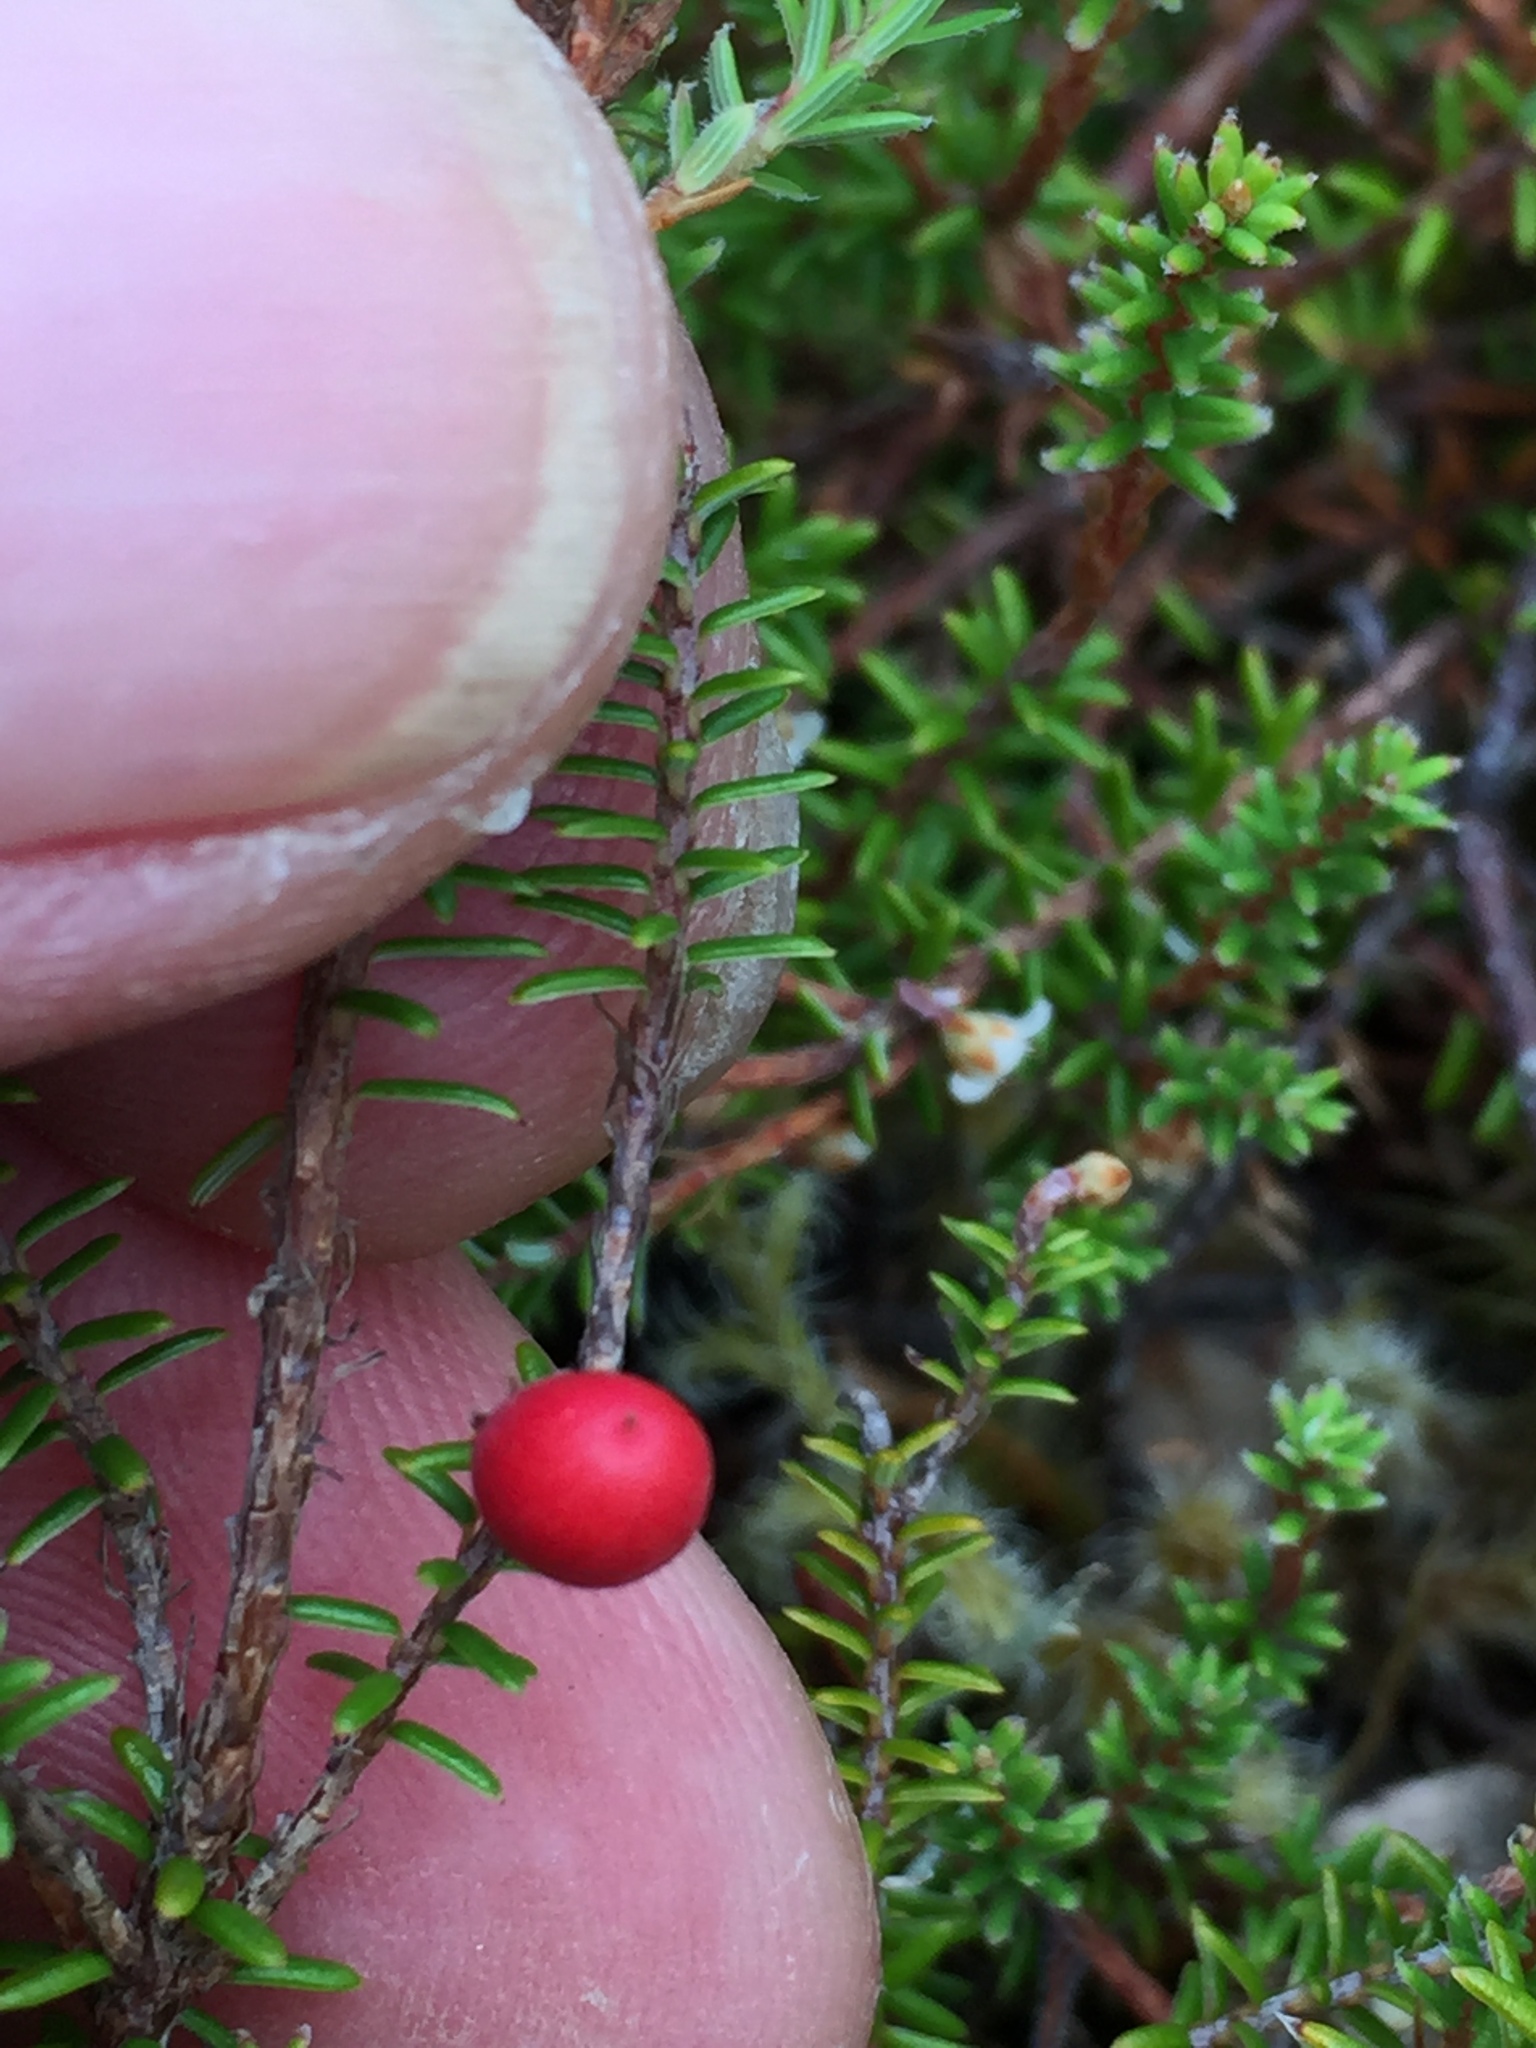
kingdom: Plantae
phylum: Tracheophyta
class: Magnoliopsida
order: Ericales
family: Ericaceae
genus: Androstoma
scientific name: Androstoma empetrifolia
